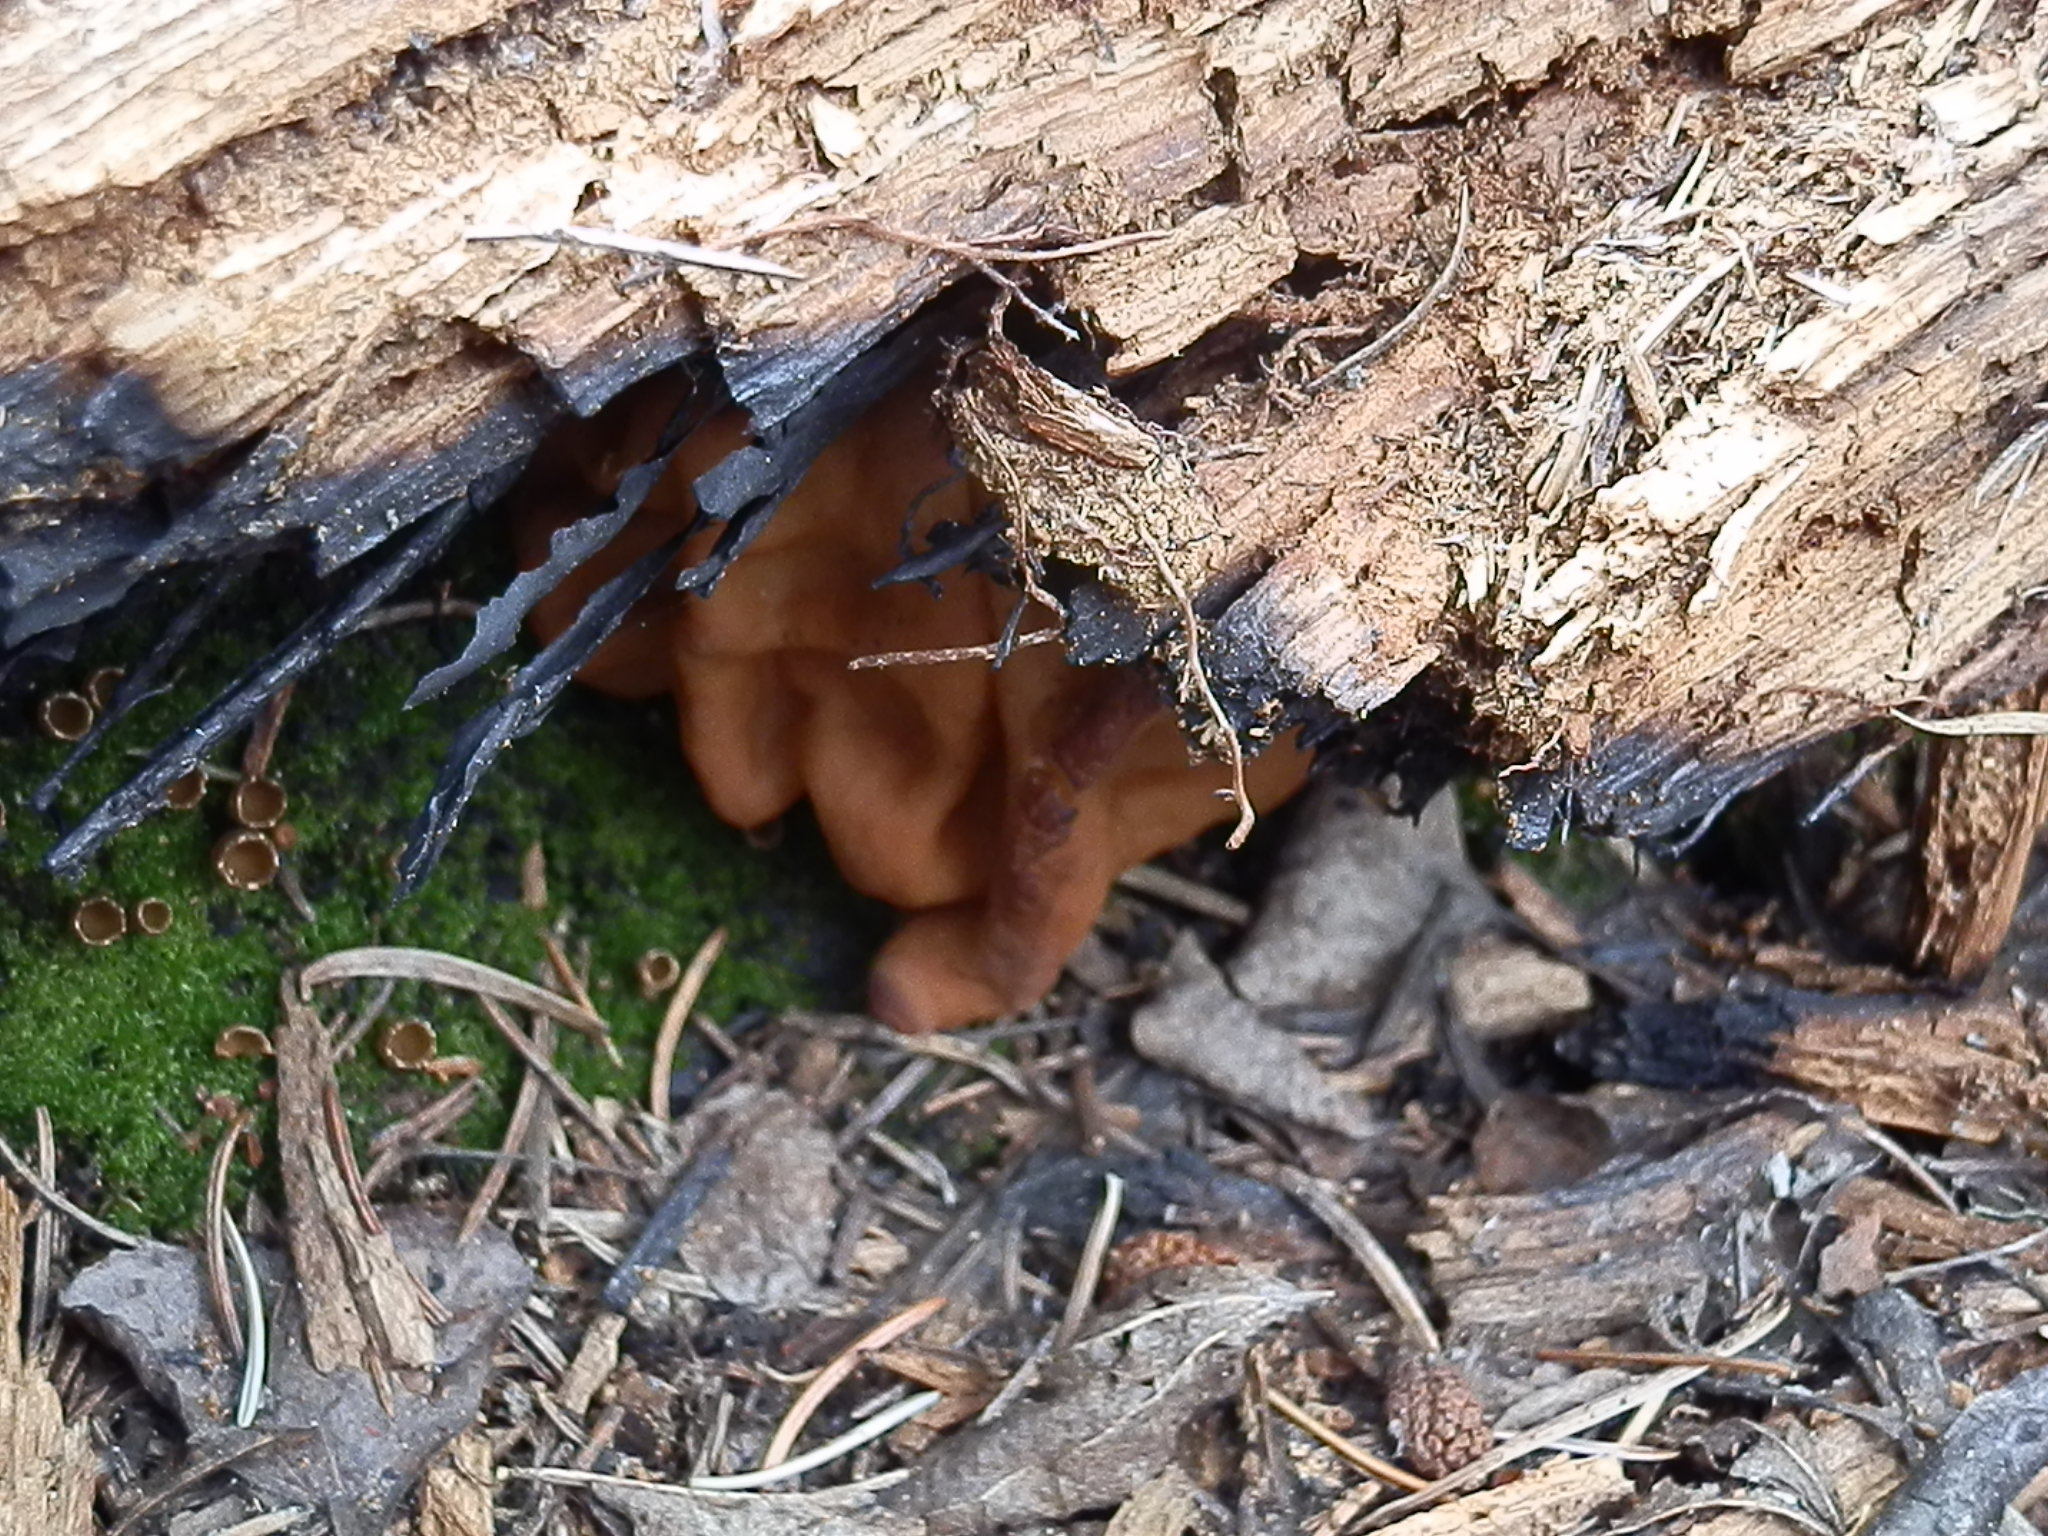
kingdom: Fungi
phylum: Ascomycota
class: Pezizomycetes
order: Pezizales
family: Discinaceae
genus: Discina
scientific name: Discina montana
